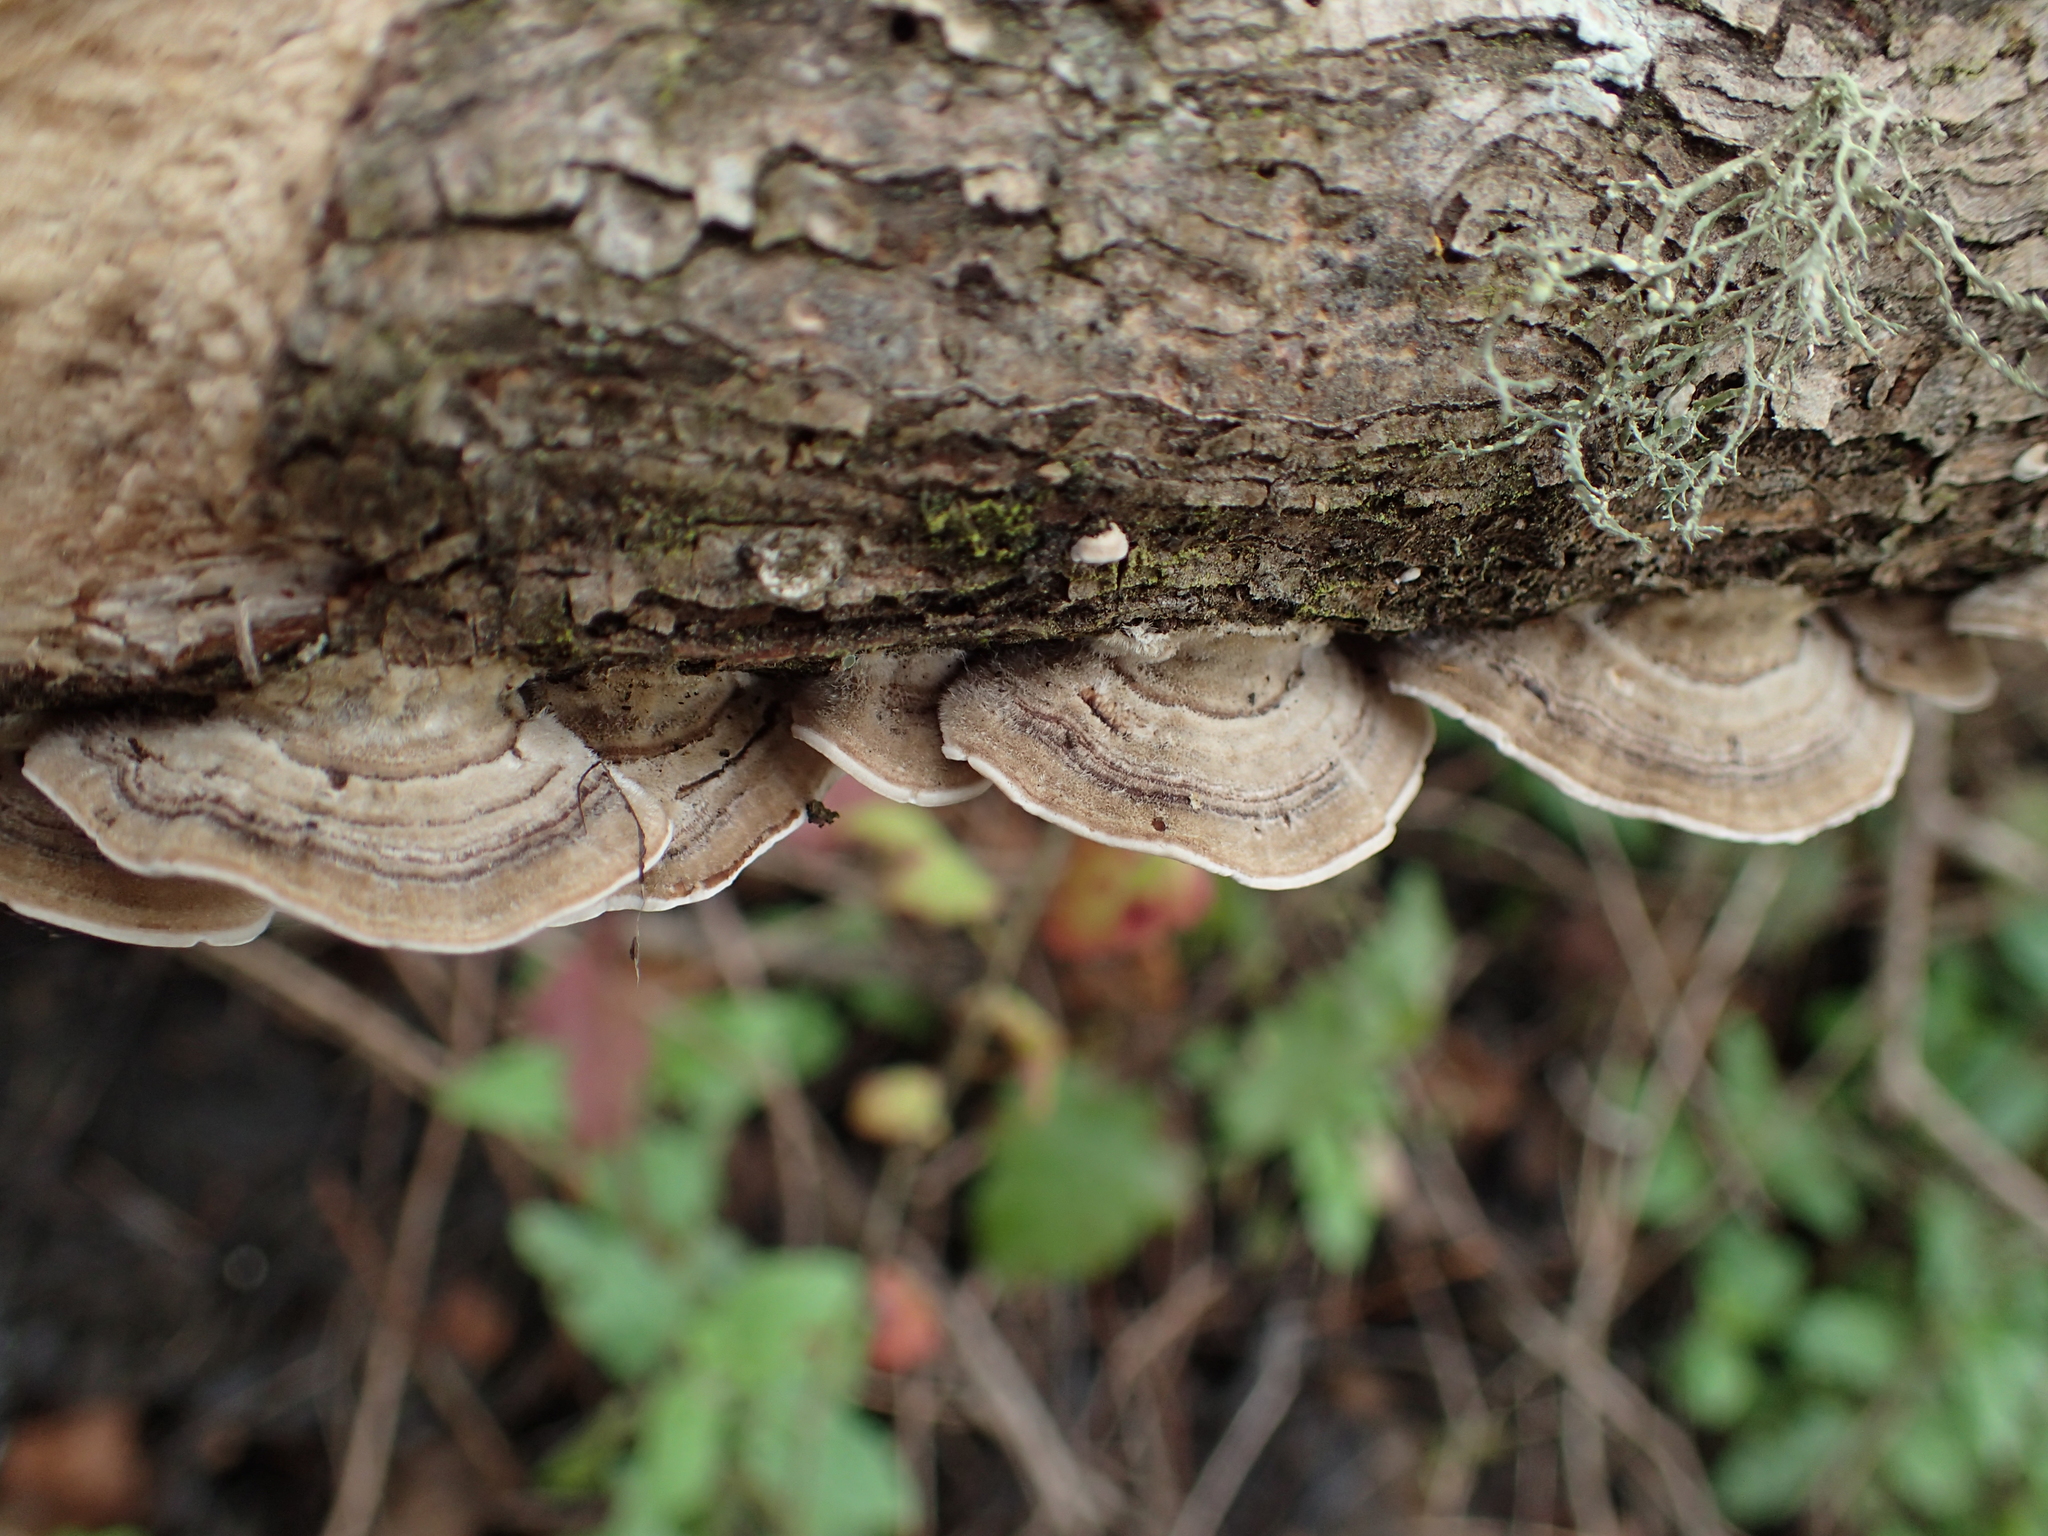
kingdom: Fungi
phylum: Basidiomycota
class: Agaricomycetes
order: Polyporales
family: Polyporaceae
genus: Trametes
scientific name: Trametes versicolor
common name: Turkeytail
